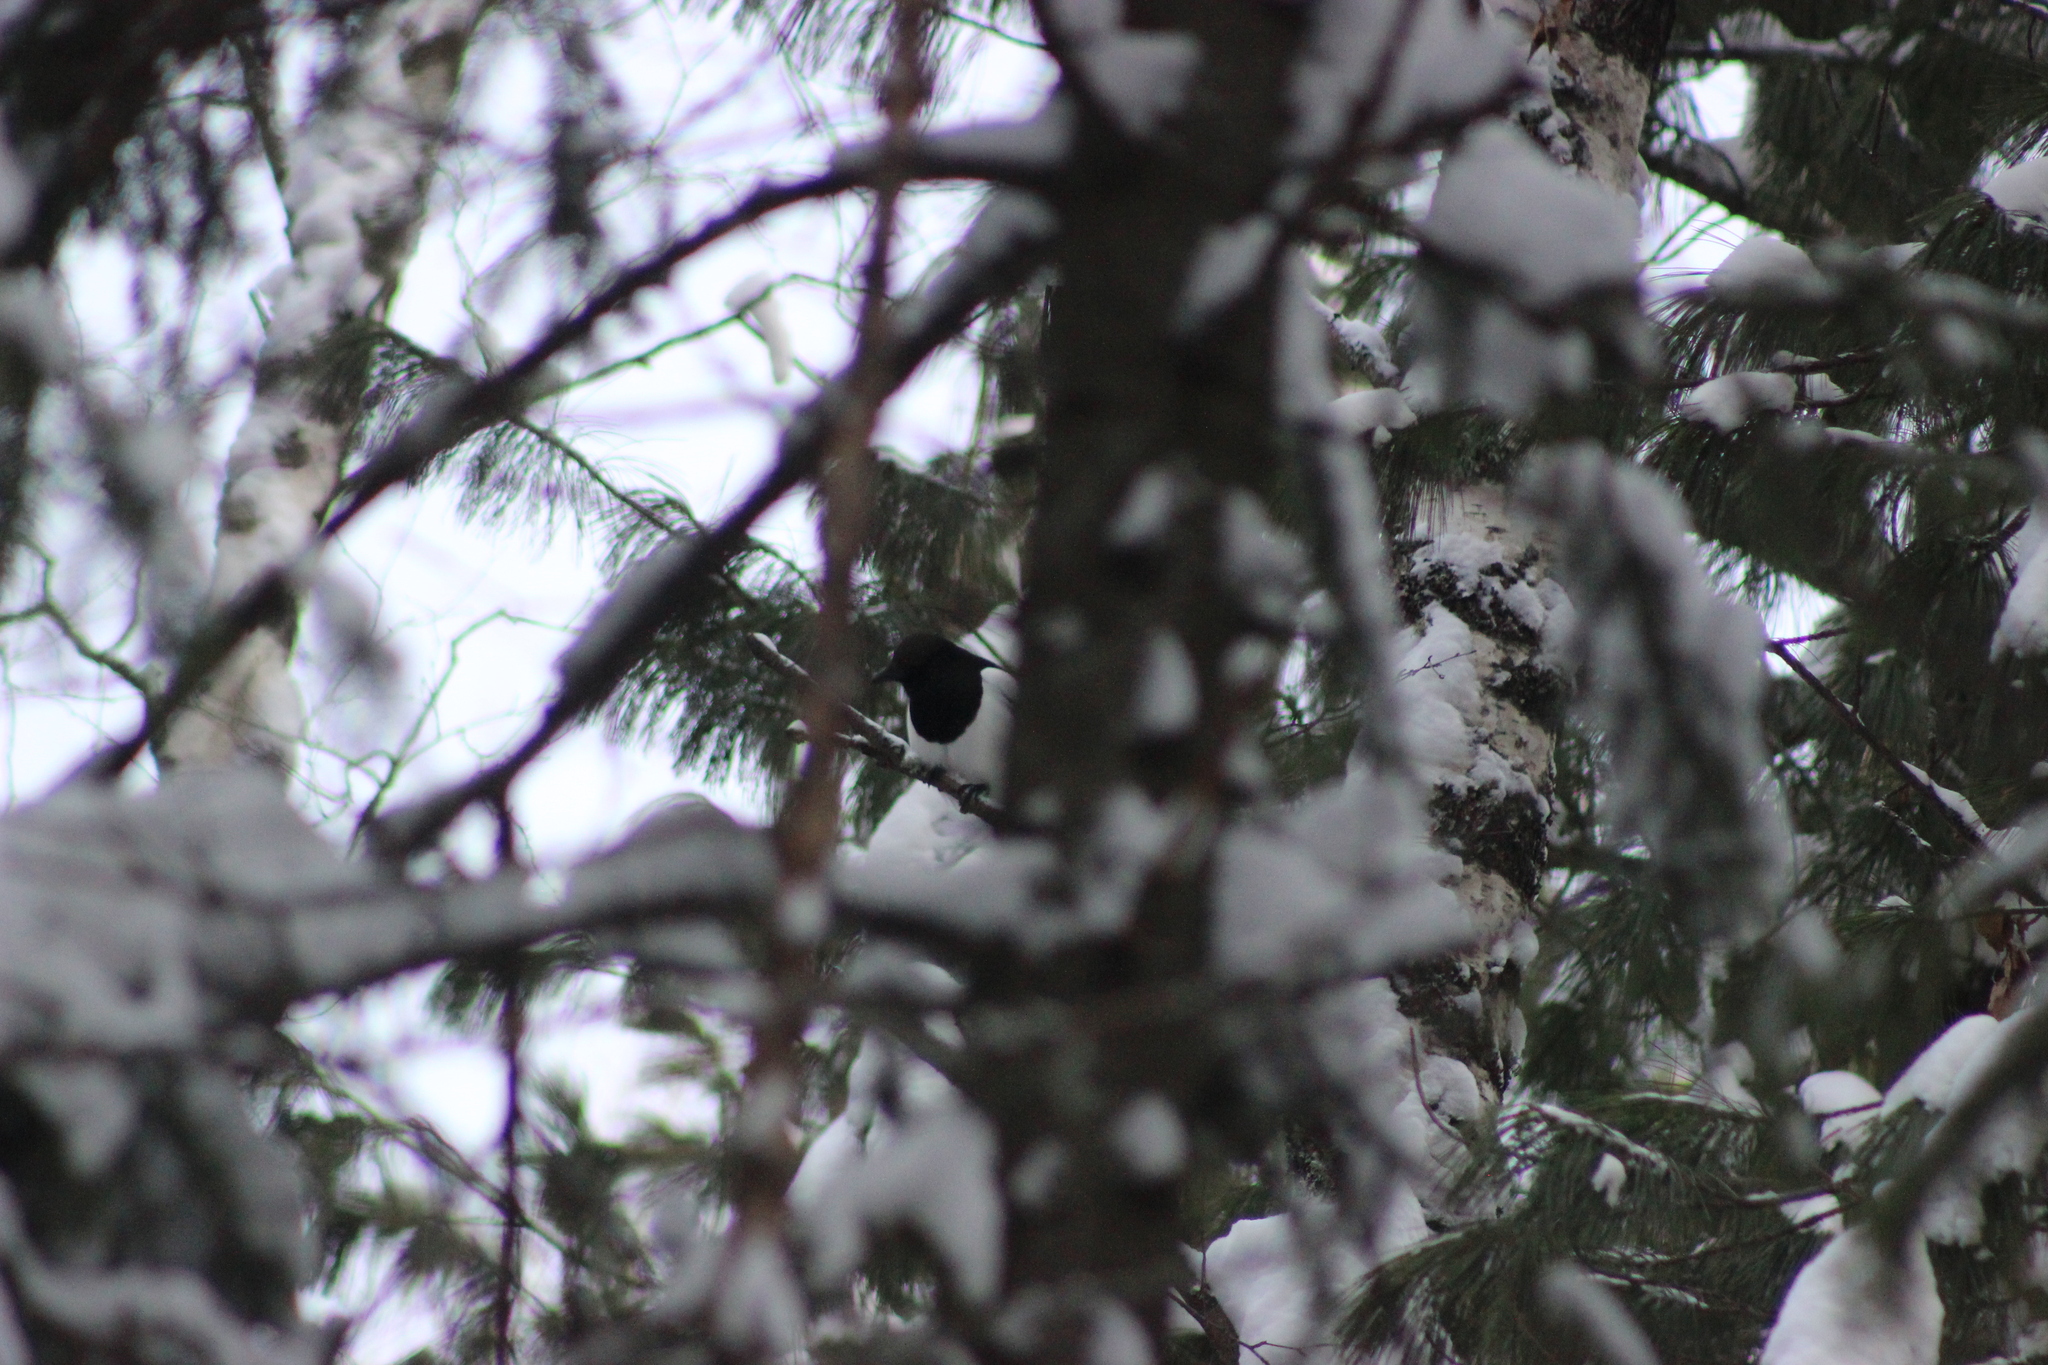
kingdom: Animalia
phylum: Chordata
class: Aves
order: Passeriformes
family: Corvidae
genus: Pica
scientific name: Pica pica
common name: Eurasian magpie
